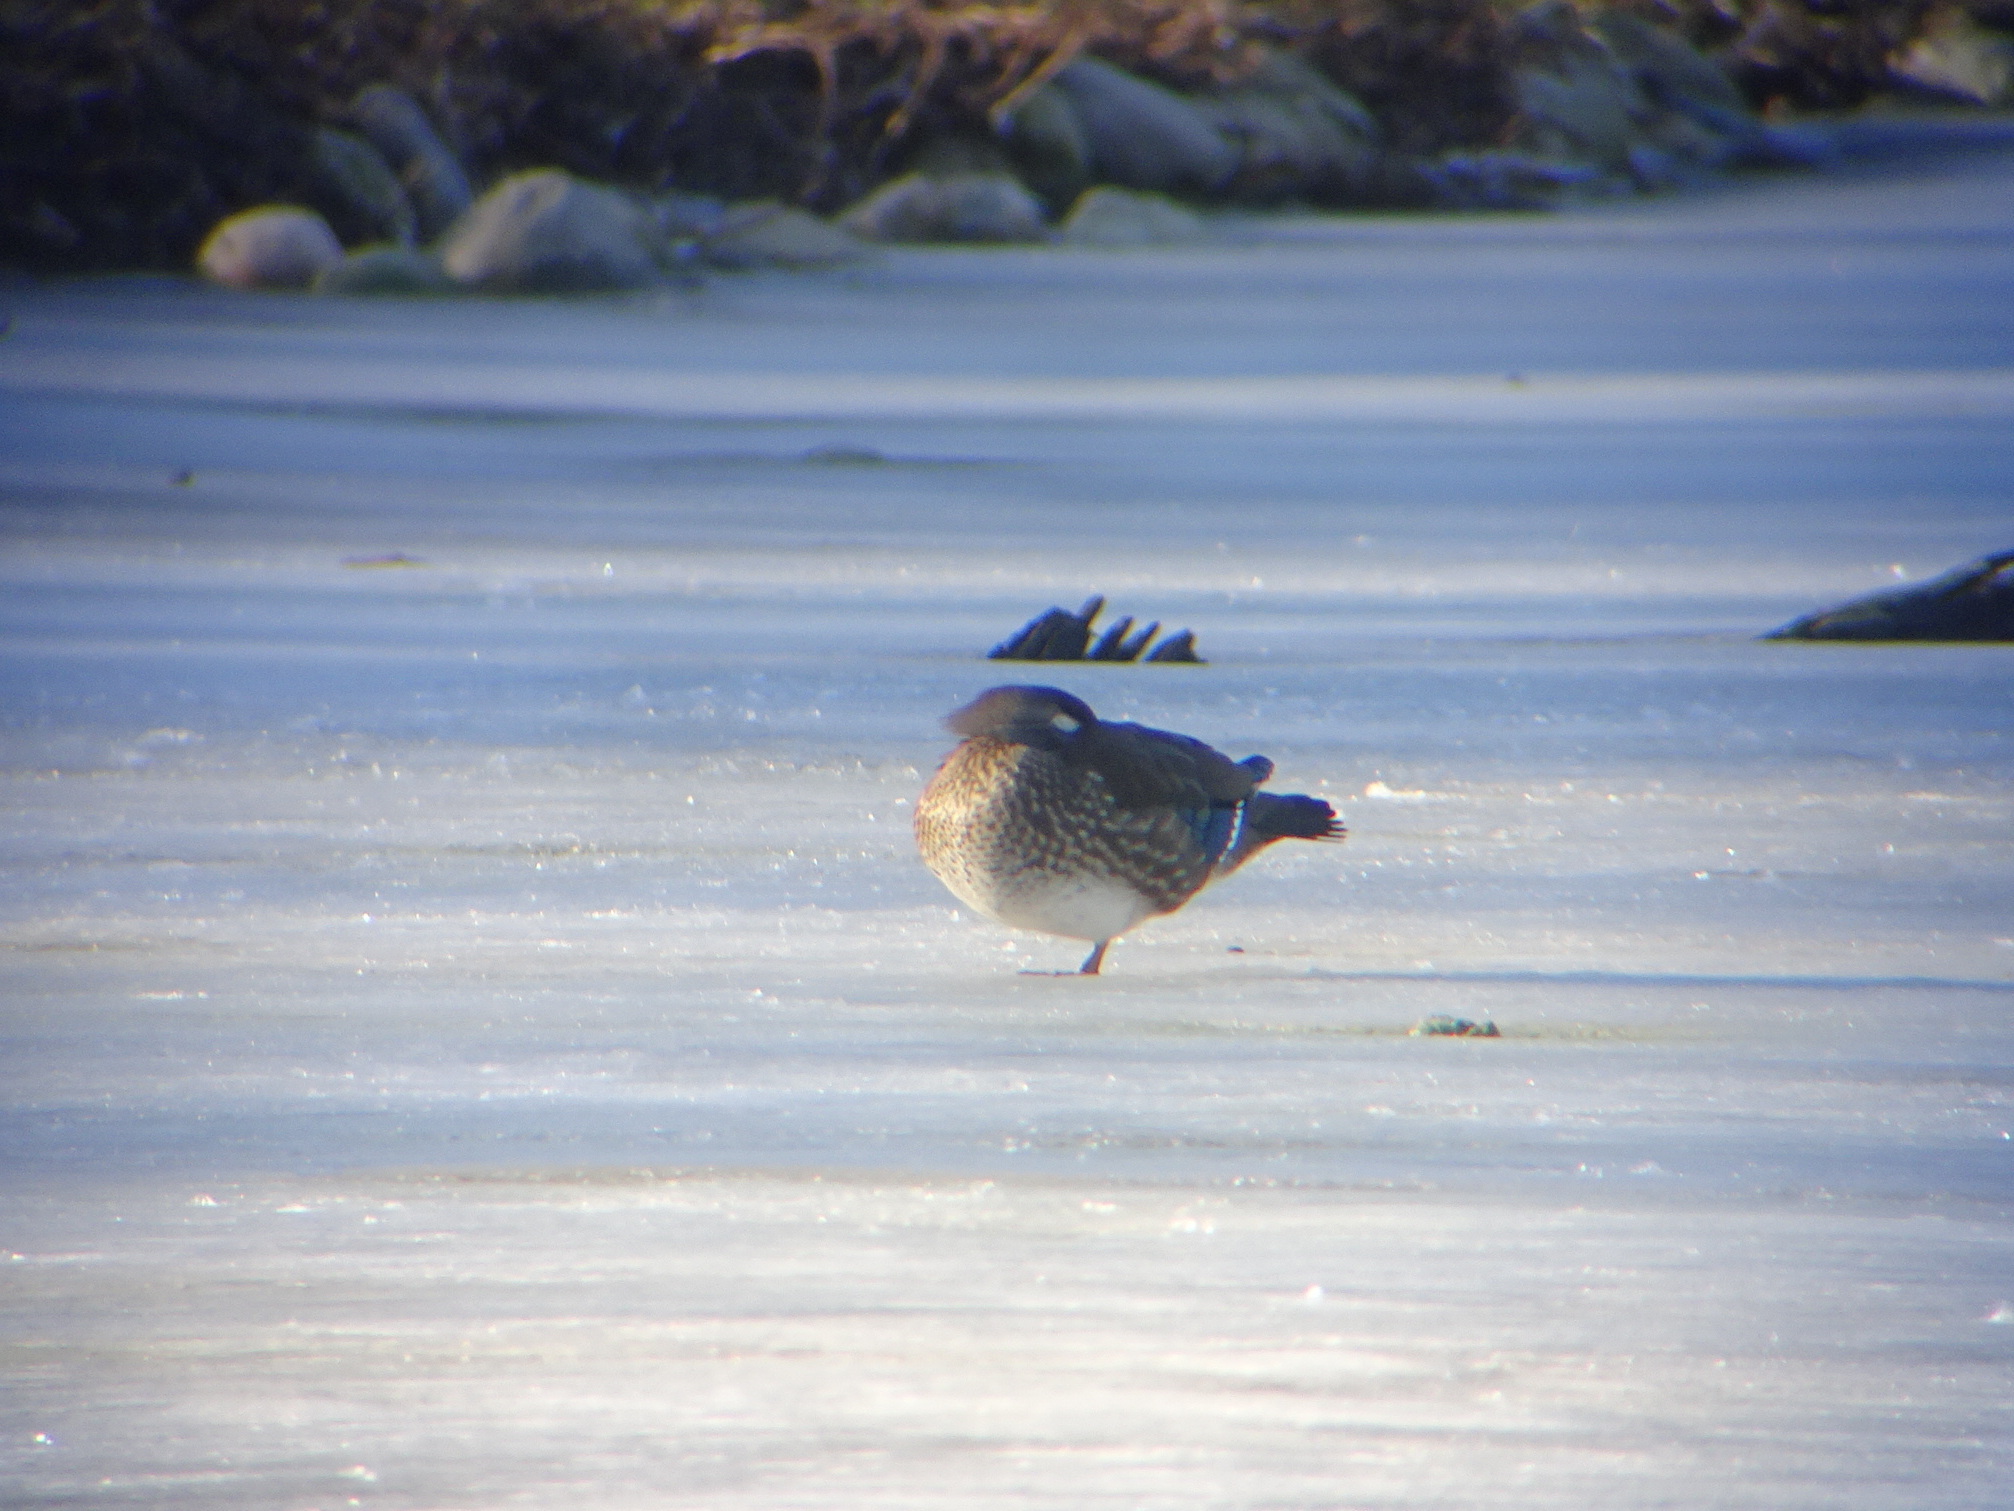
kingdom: Animalia
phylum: Chordata
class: Aves
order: Anseriformes
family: Anatidae
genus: Aix
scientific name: Aix sponsa
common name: Wood duck
